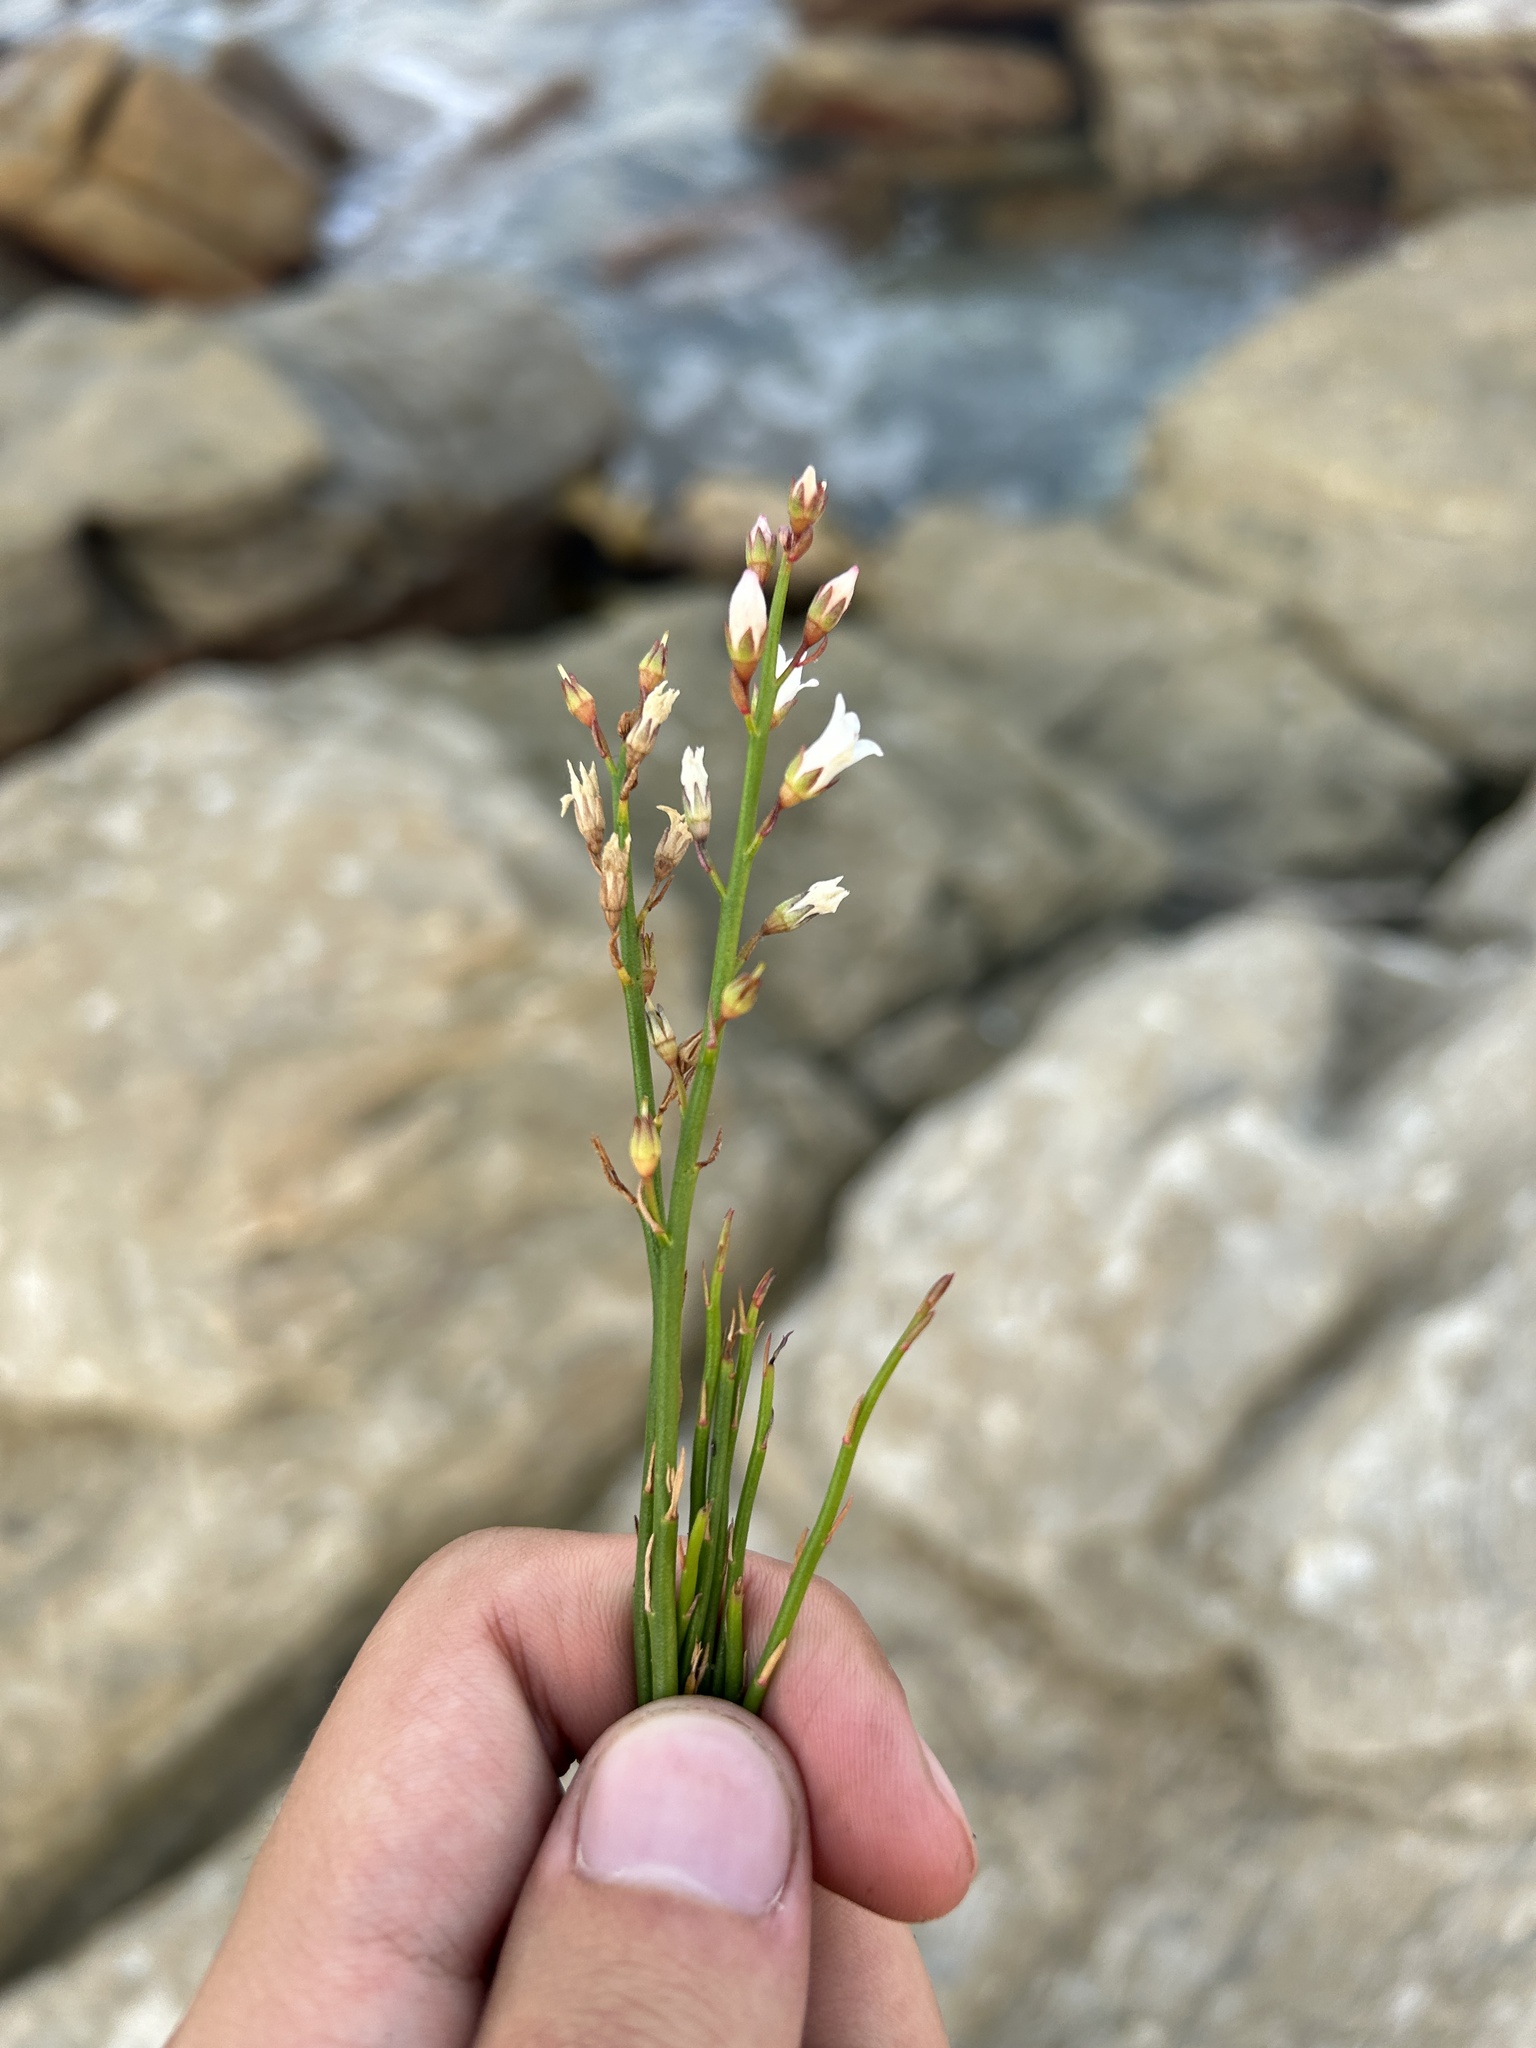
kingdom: Plantae
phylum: Tracheophyta
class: Magnoliopsida
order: Ericales
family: Primulaceae
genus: Samolus
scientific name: Samolus porosus
